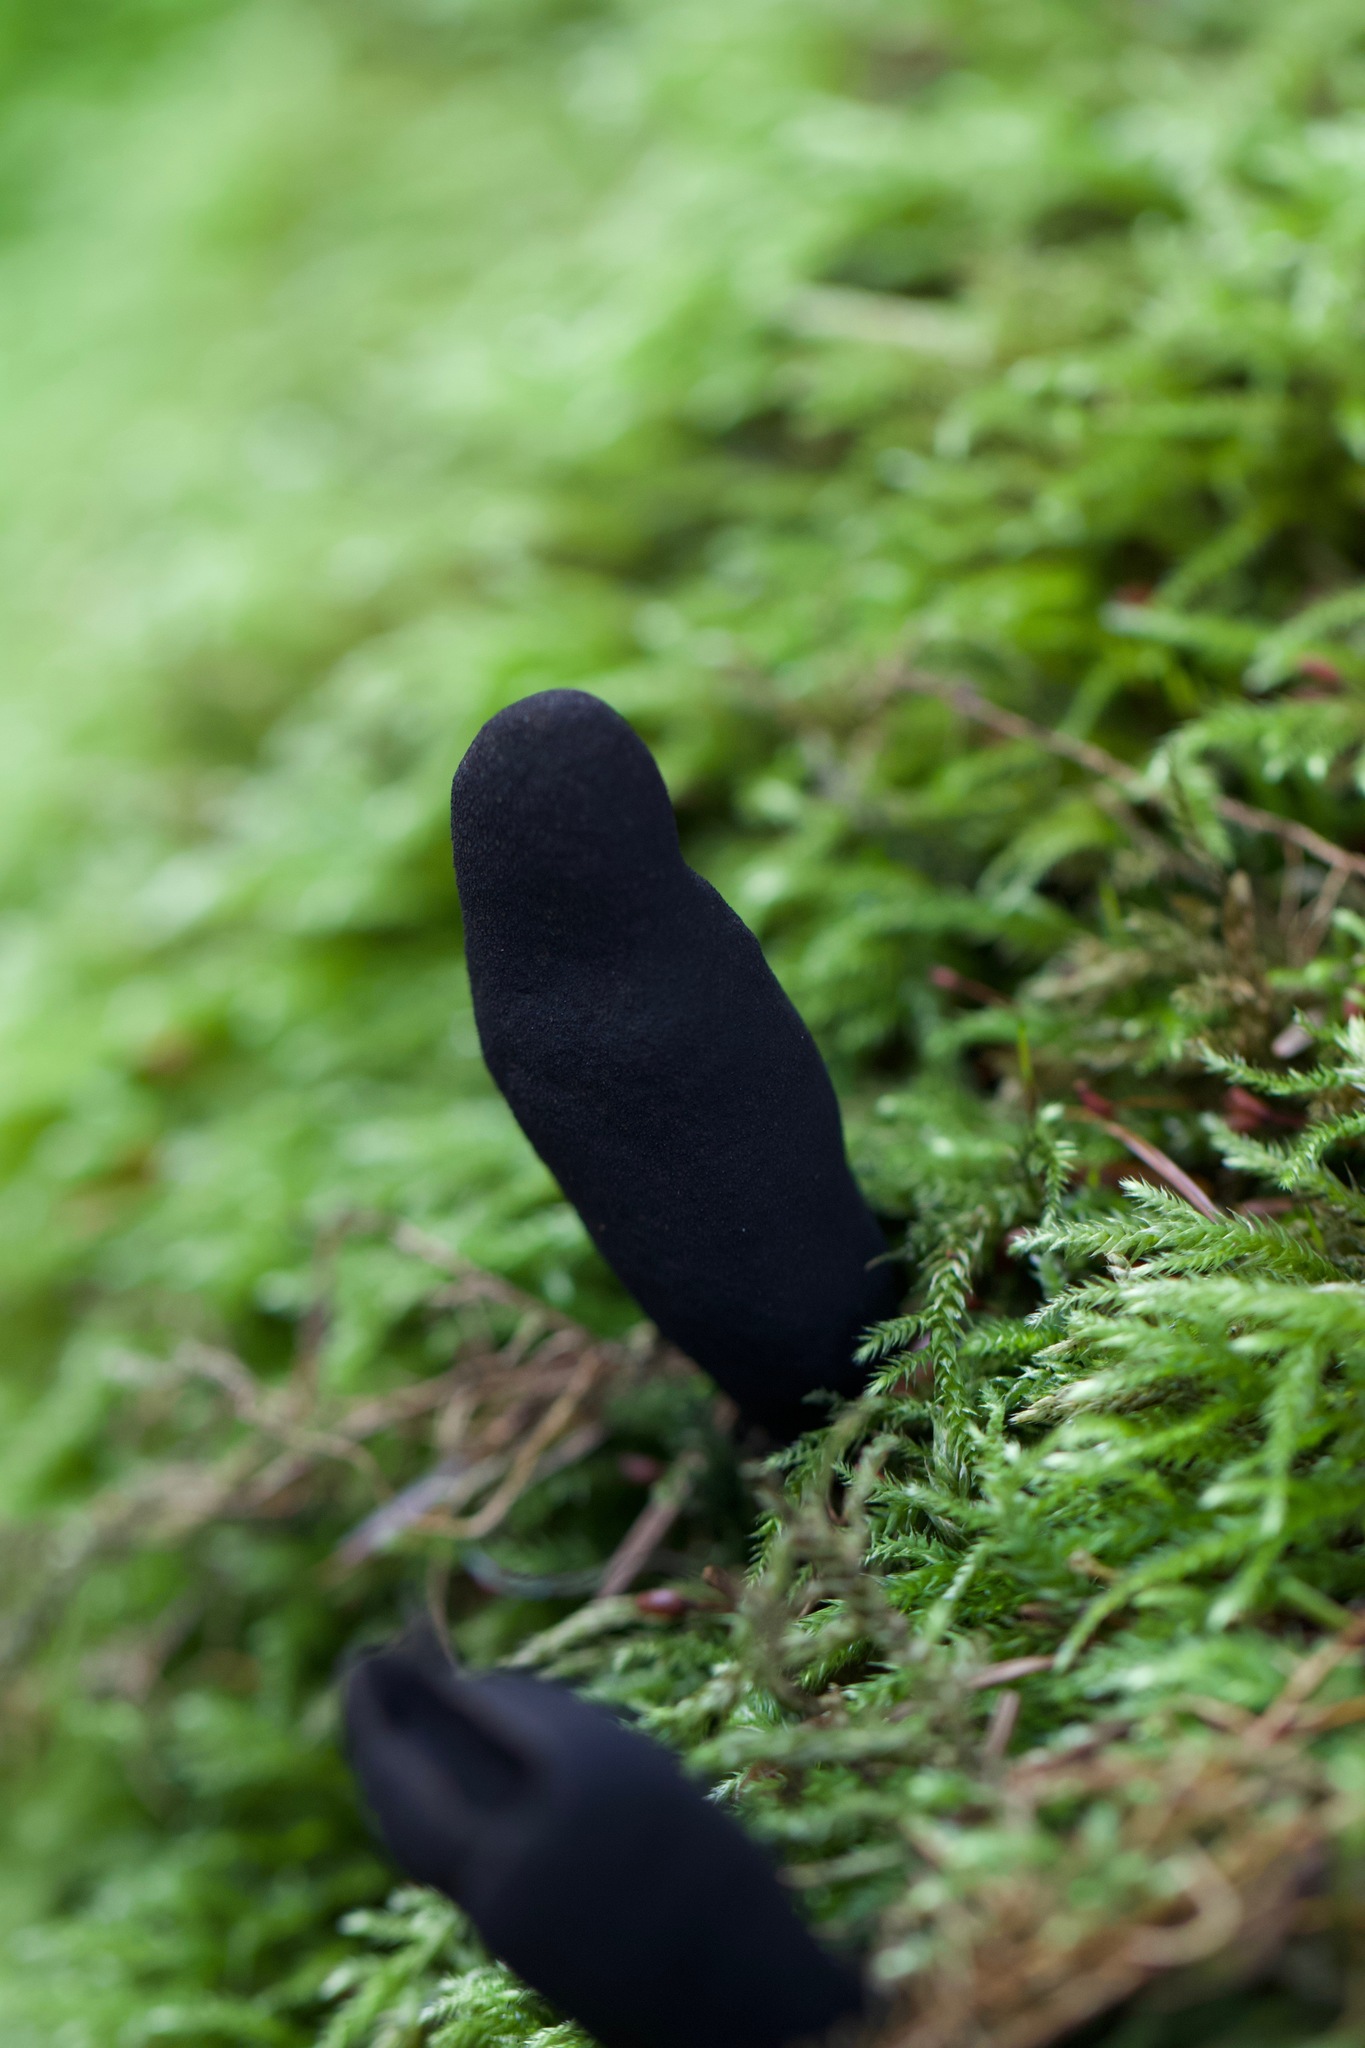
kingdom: Fungi
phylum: Ascomycota
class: Sordariomycetes
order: Xylariales
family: Xylariaceae
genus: Xylaria
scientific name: Xylaria polymorpha
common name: Dead man's fingers
